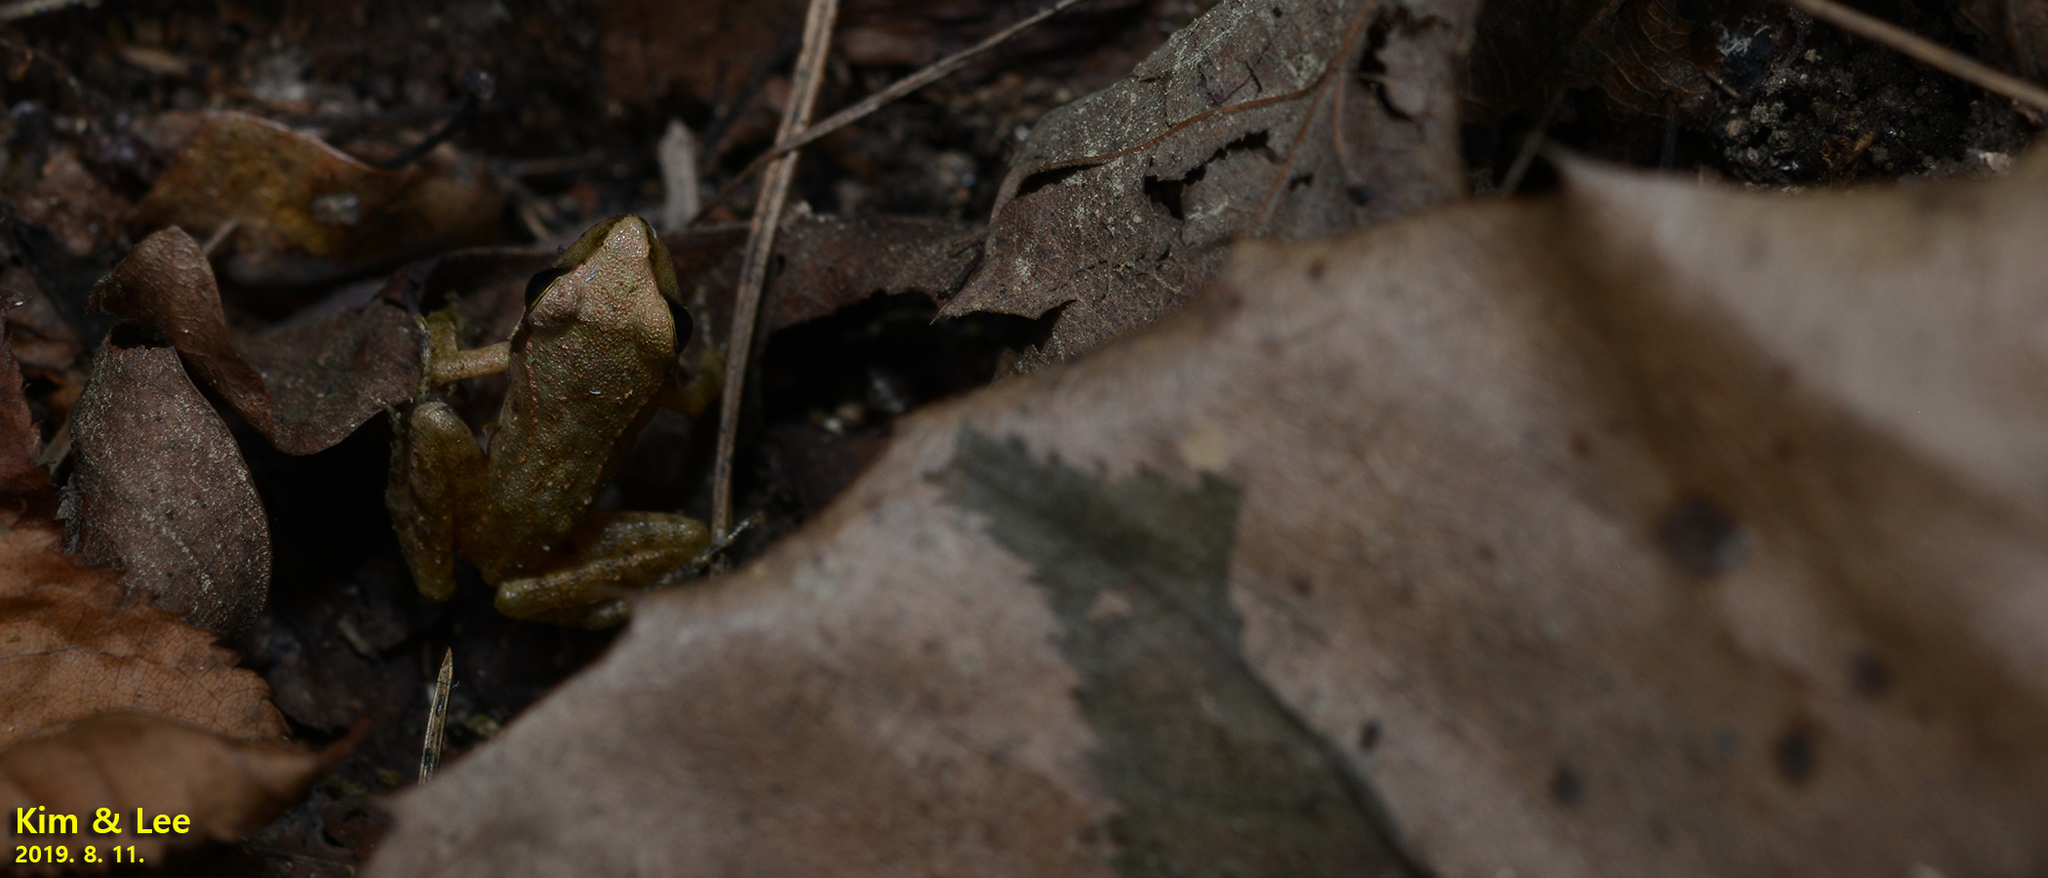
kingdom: Animalia
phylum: Chordata
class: Amphibia
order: Anura
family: Ranidae
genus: Rana
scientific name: Rana huanrenensis
